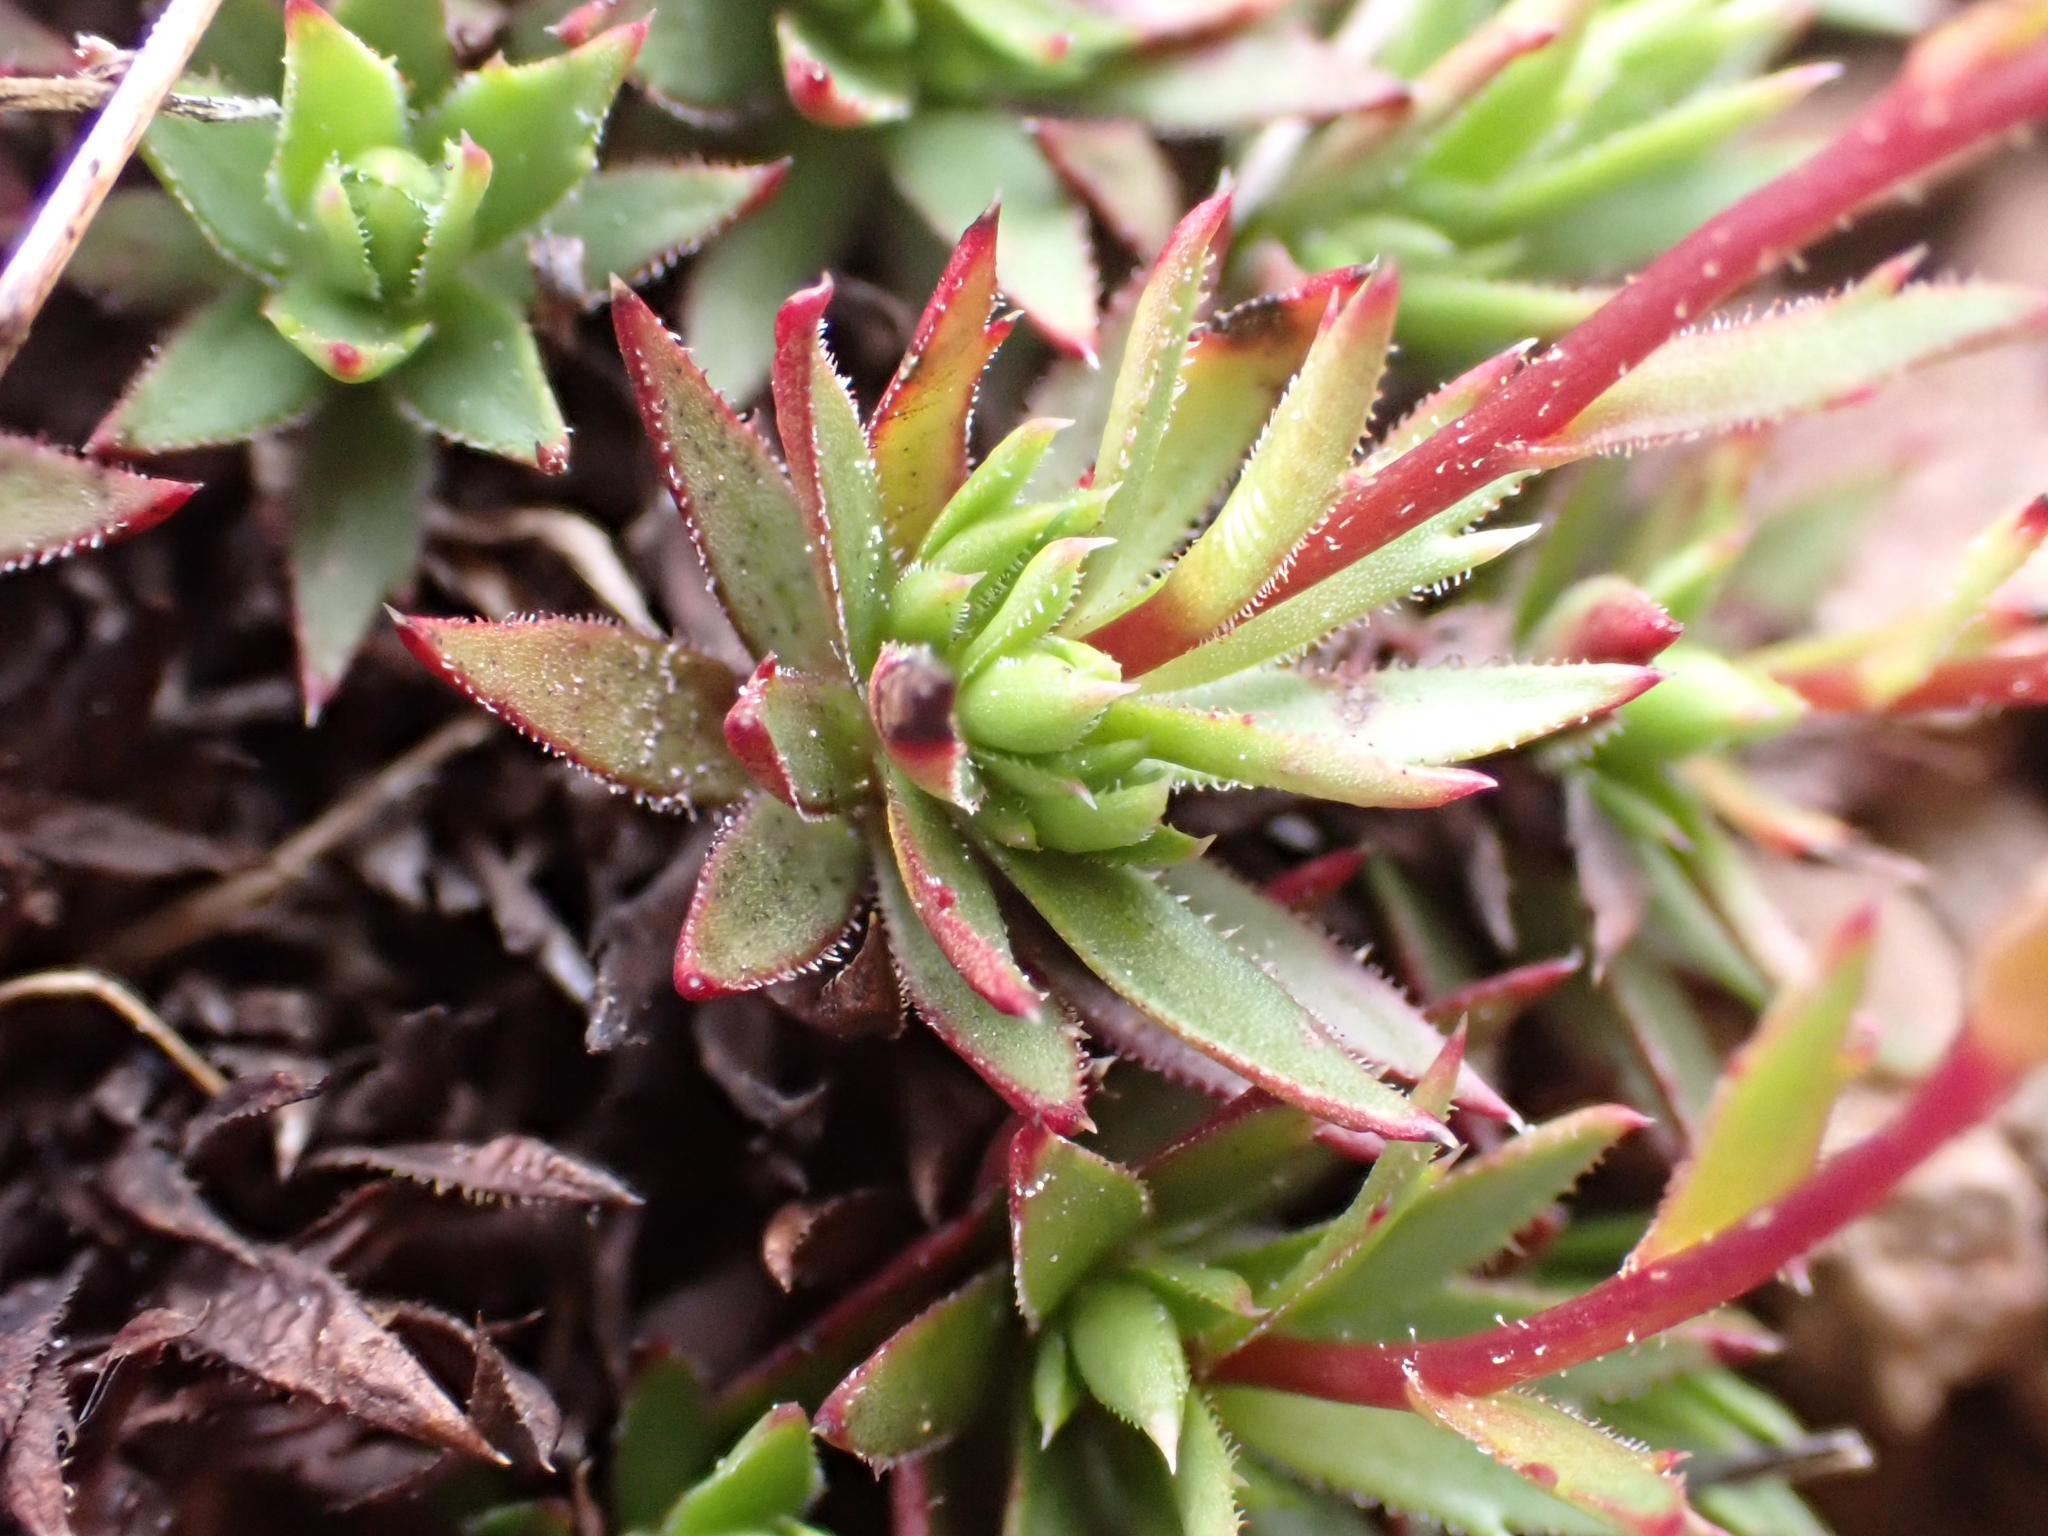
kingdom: Plantae
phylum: Tracheophyta
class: Magnoliopsida
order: Saxifragales
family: Saxifragaceae
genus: Saxifraga
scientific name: Saxifraga bronchialis
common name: Matted saxifrage
